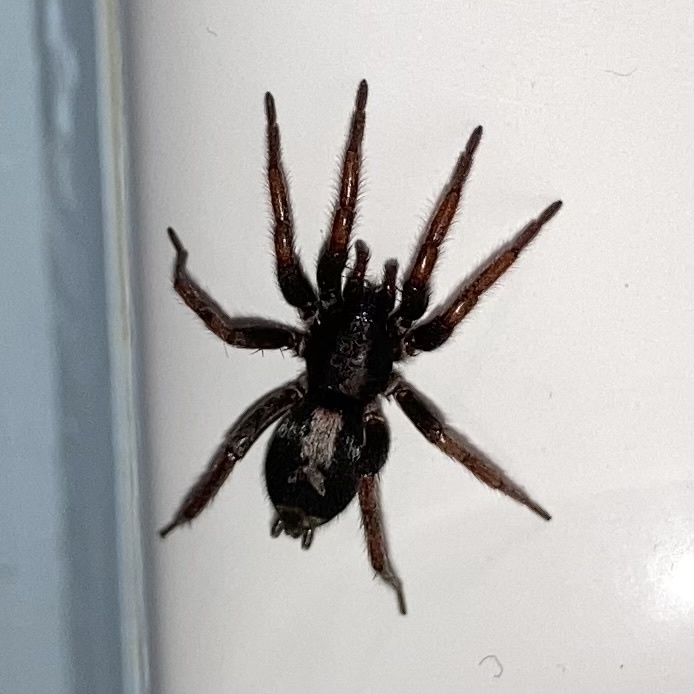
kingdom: Animalia
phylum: Arthropoda
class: Arachnida
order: Araneae
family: Gnaphosidae
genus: Herpyllus
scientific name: Herpyllus ecclesiasticus
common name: Eastern parson spider
